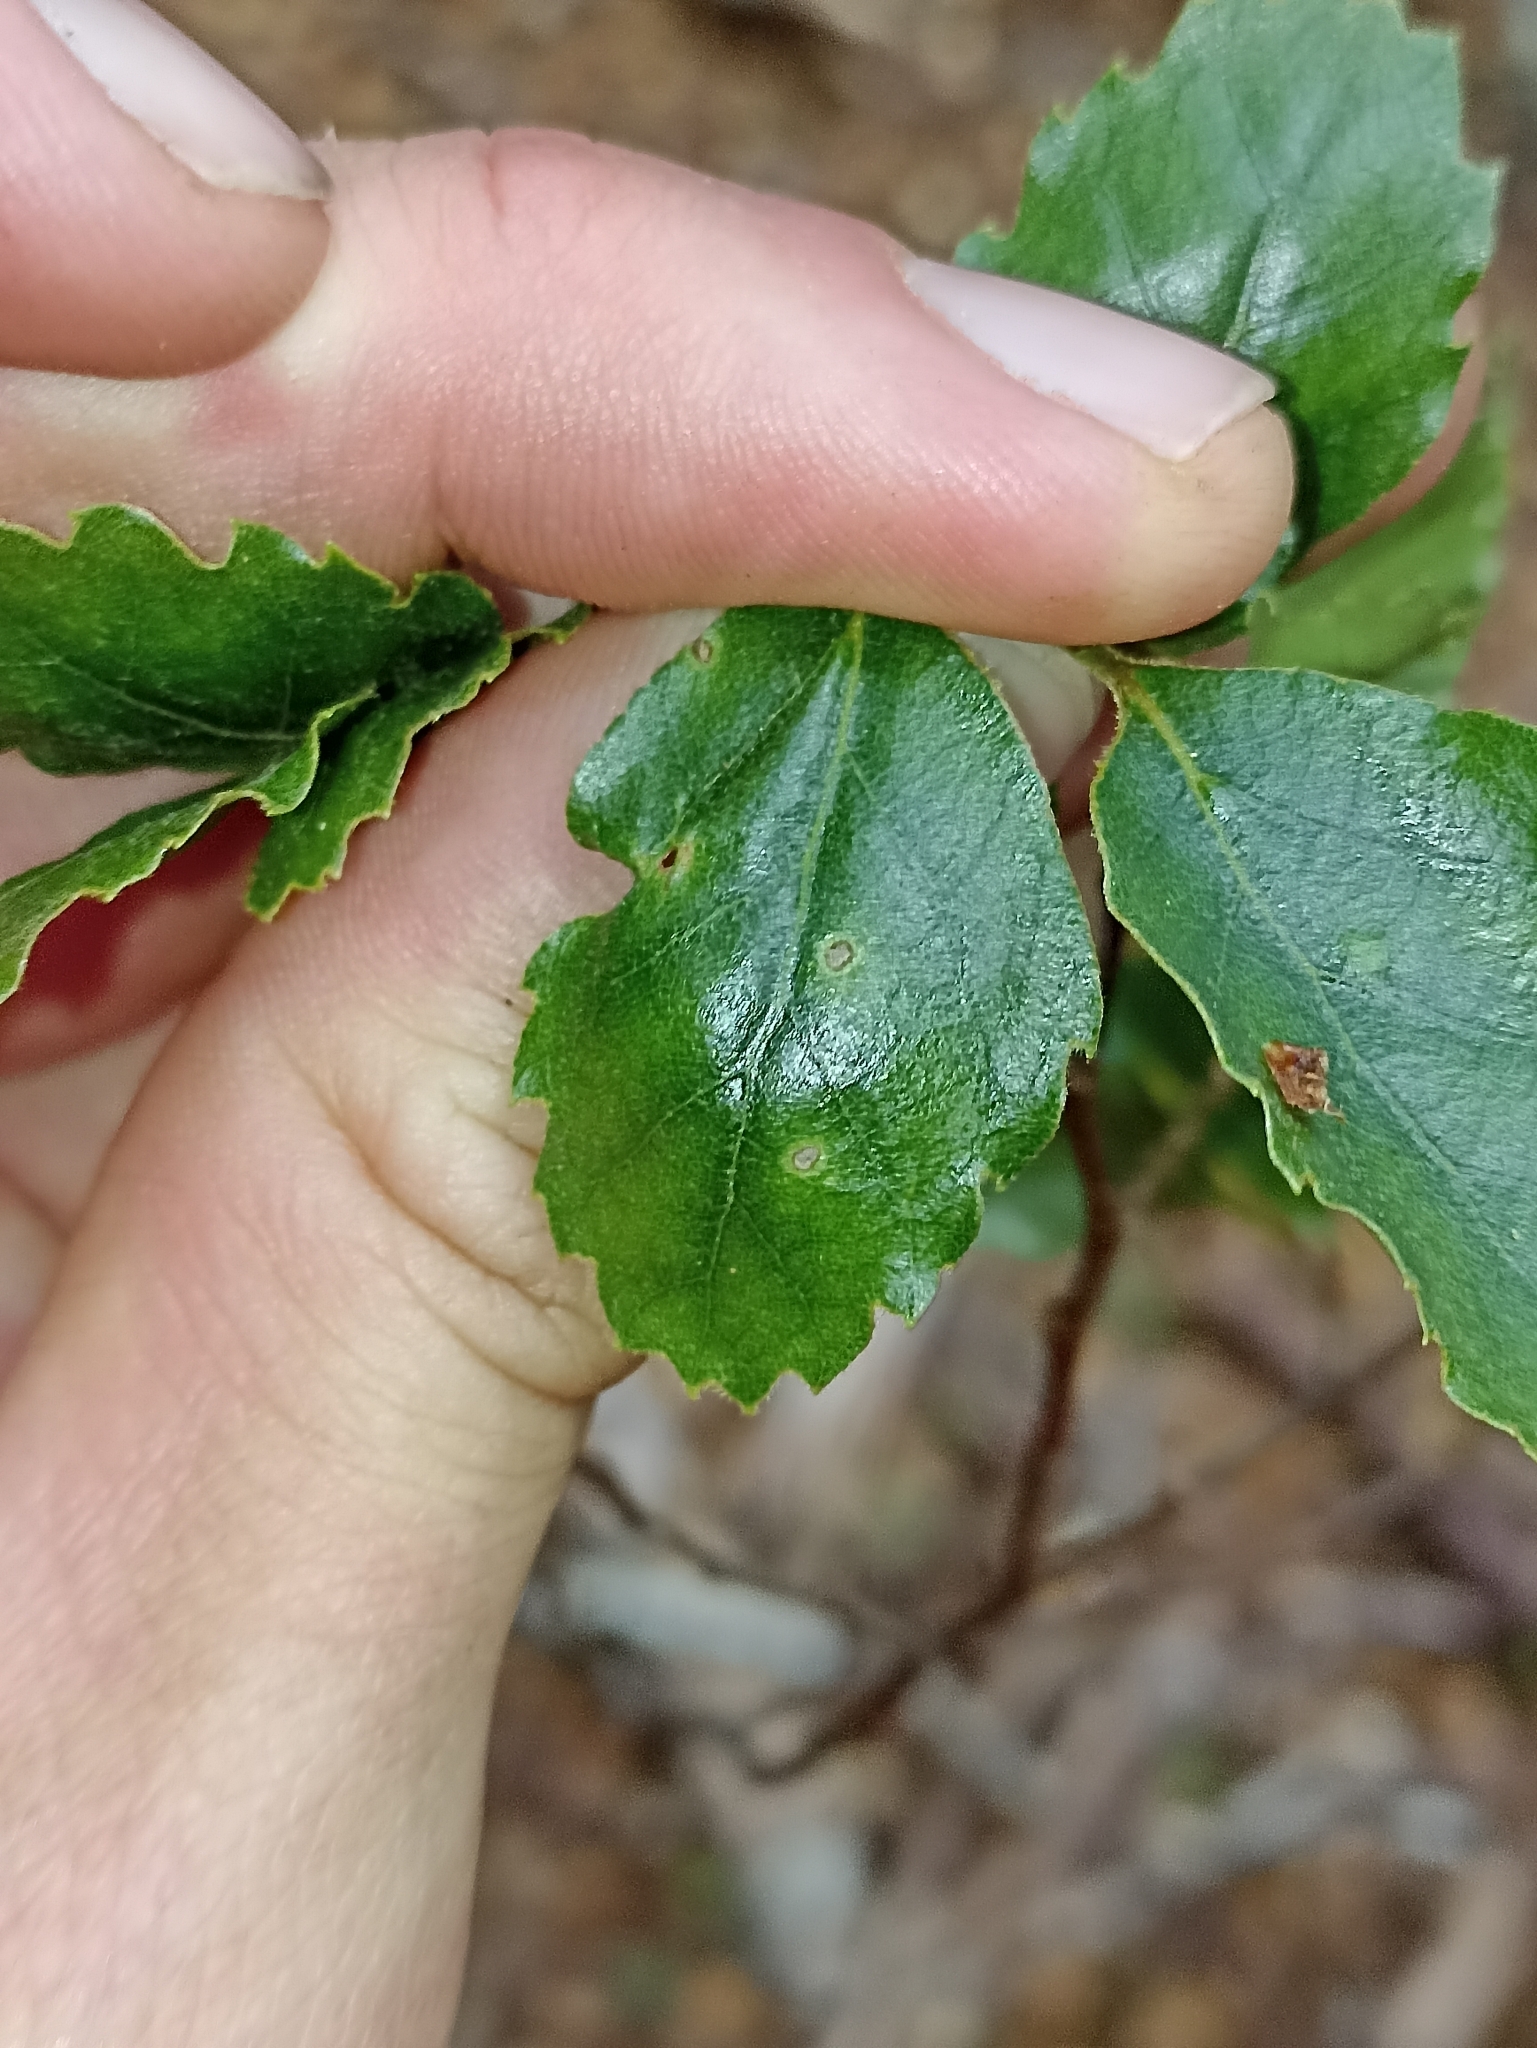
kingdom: Plantae
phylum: Tracheophyta
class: Magnoliopsida
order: Fagales
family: Nothofagaceae
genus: Nothofagus
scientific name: Nothofagus fusca
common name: Red beech
